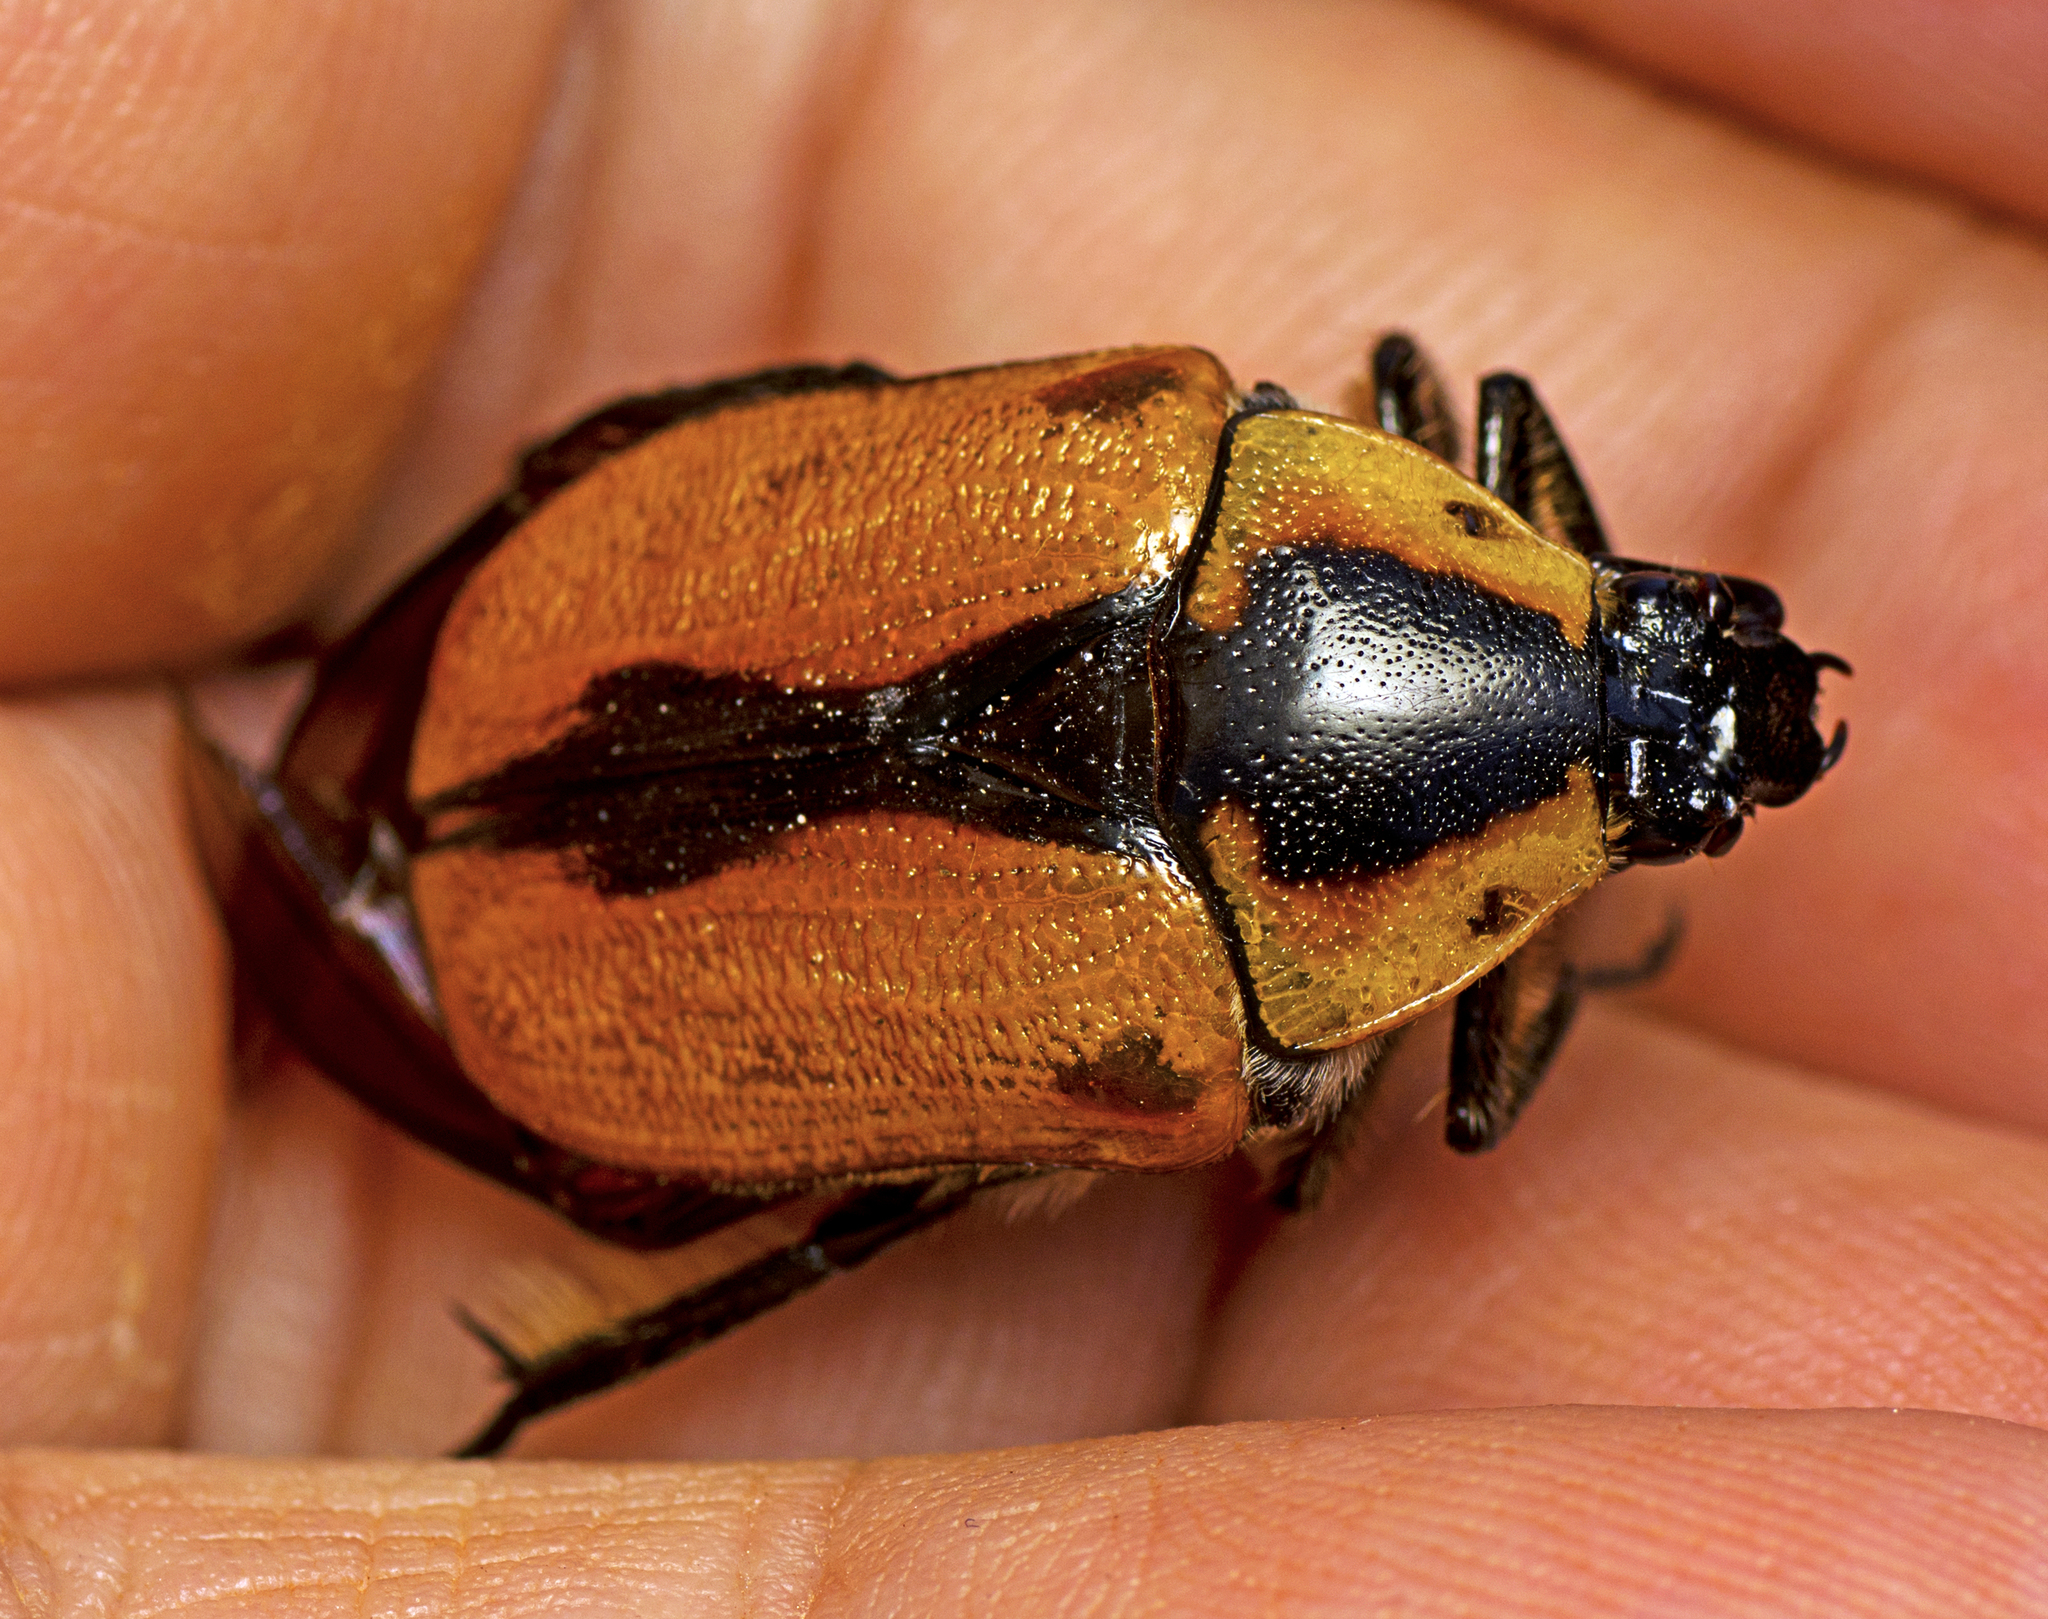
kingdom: Animalia
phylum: Arthropoda
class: Insecta
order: Coleoptera
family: Scarabaeidae
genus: Chondropyga
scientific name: Chondropyga dorsalis
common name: Cowboy beetle
